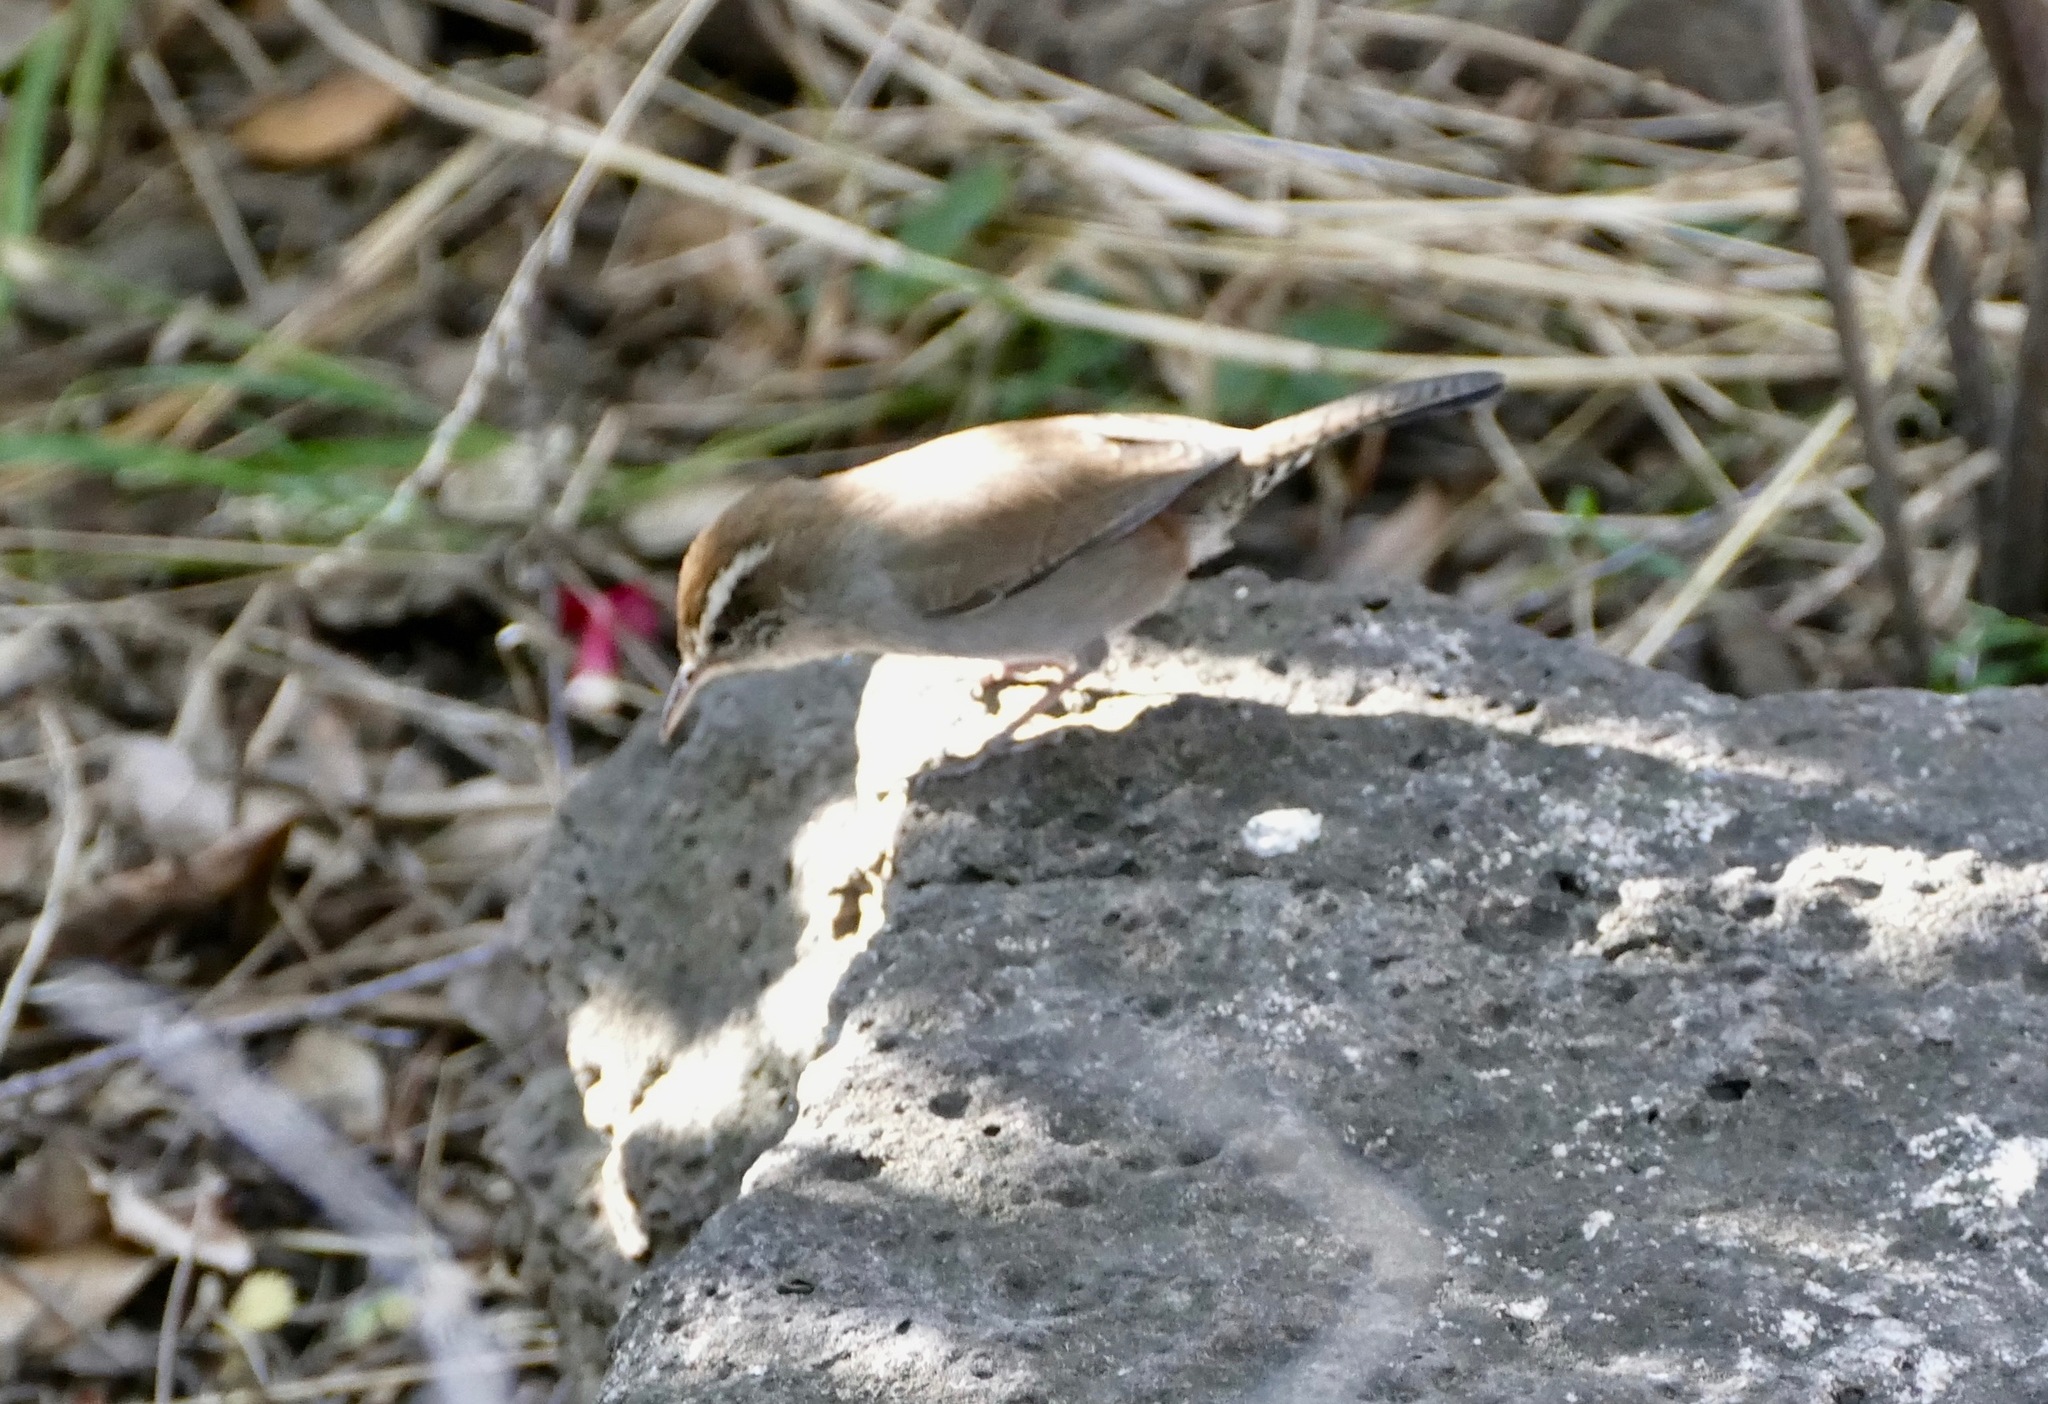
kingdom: Animalia
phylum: Chordata
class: Aves
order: Passeriformes
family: Troglodytidae
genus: Thryomanes
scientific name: Thryomanes bewickii
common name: Bewick's wren
